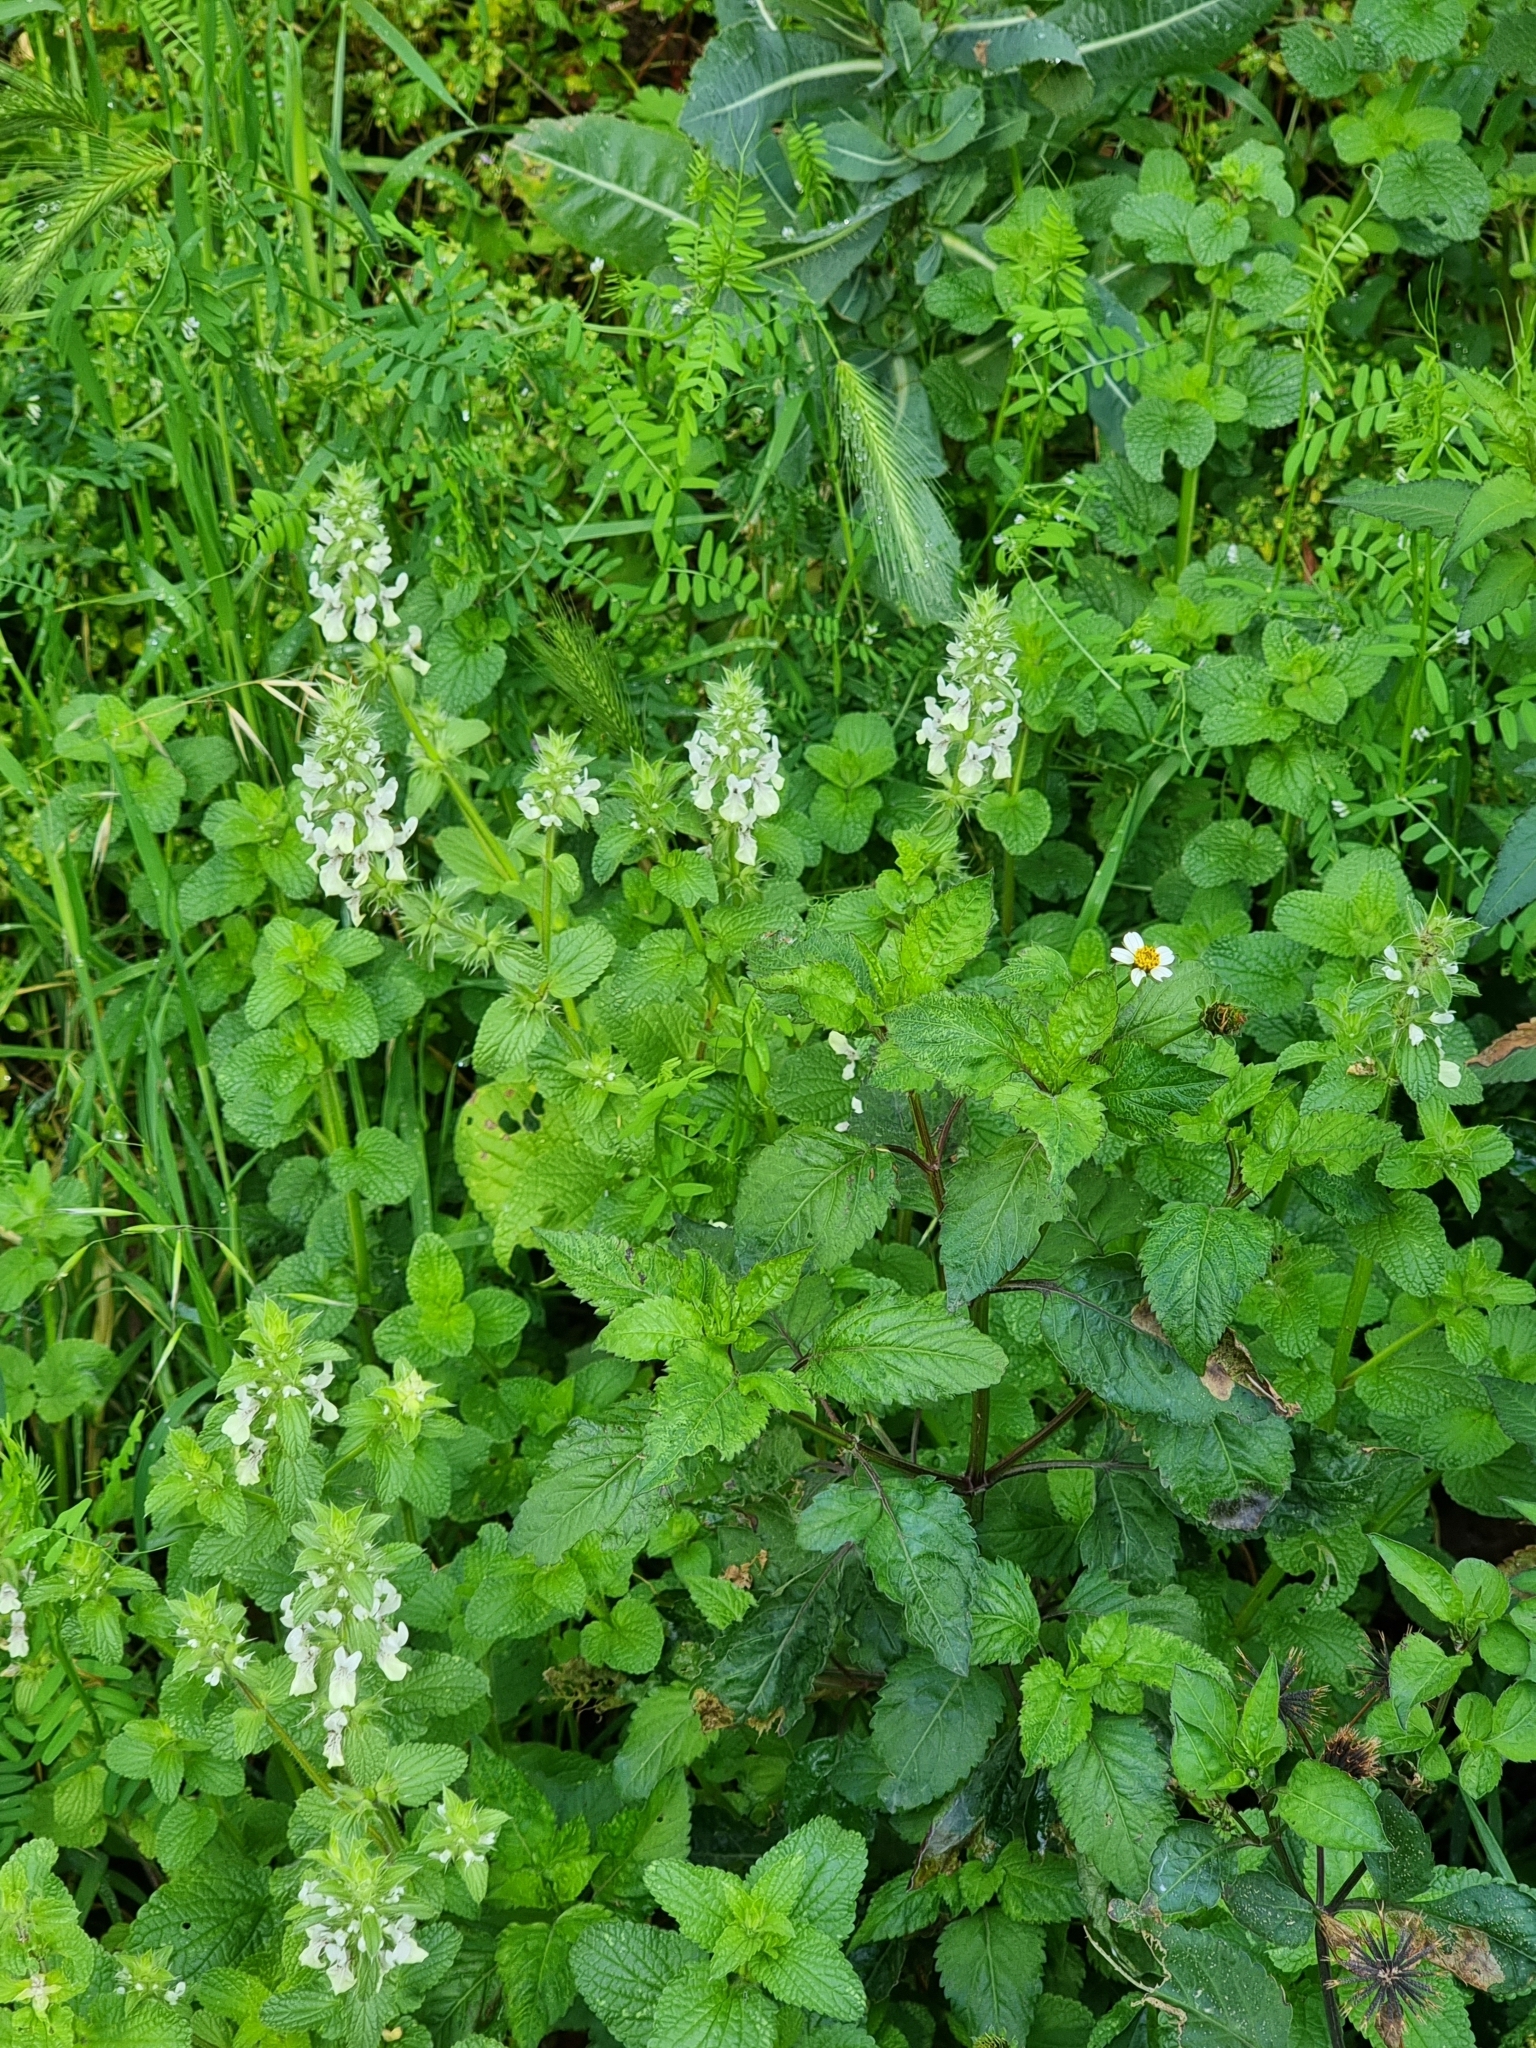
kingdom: Plantae
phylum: Tracheophyta
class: Magnoliopsida
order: Lamiales
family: Lamiaceae
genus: Stachys
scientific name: Stachys ocymastrum
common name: Italian hedgenettle
